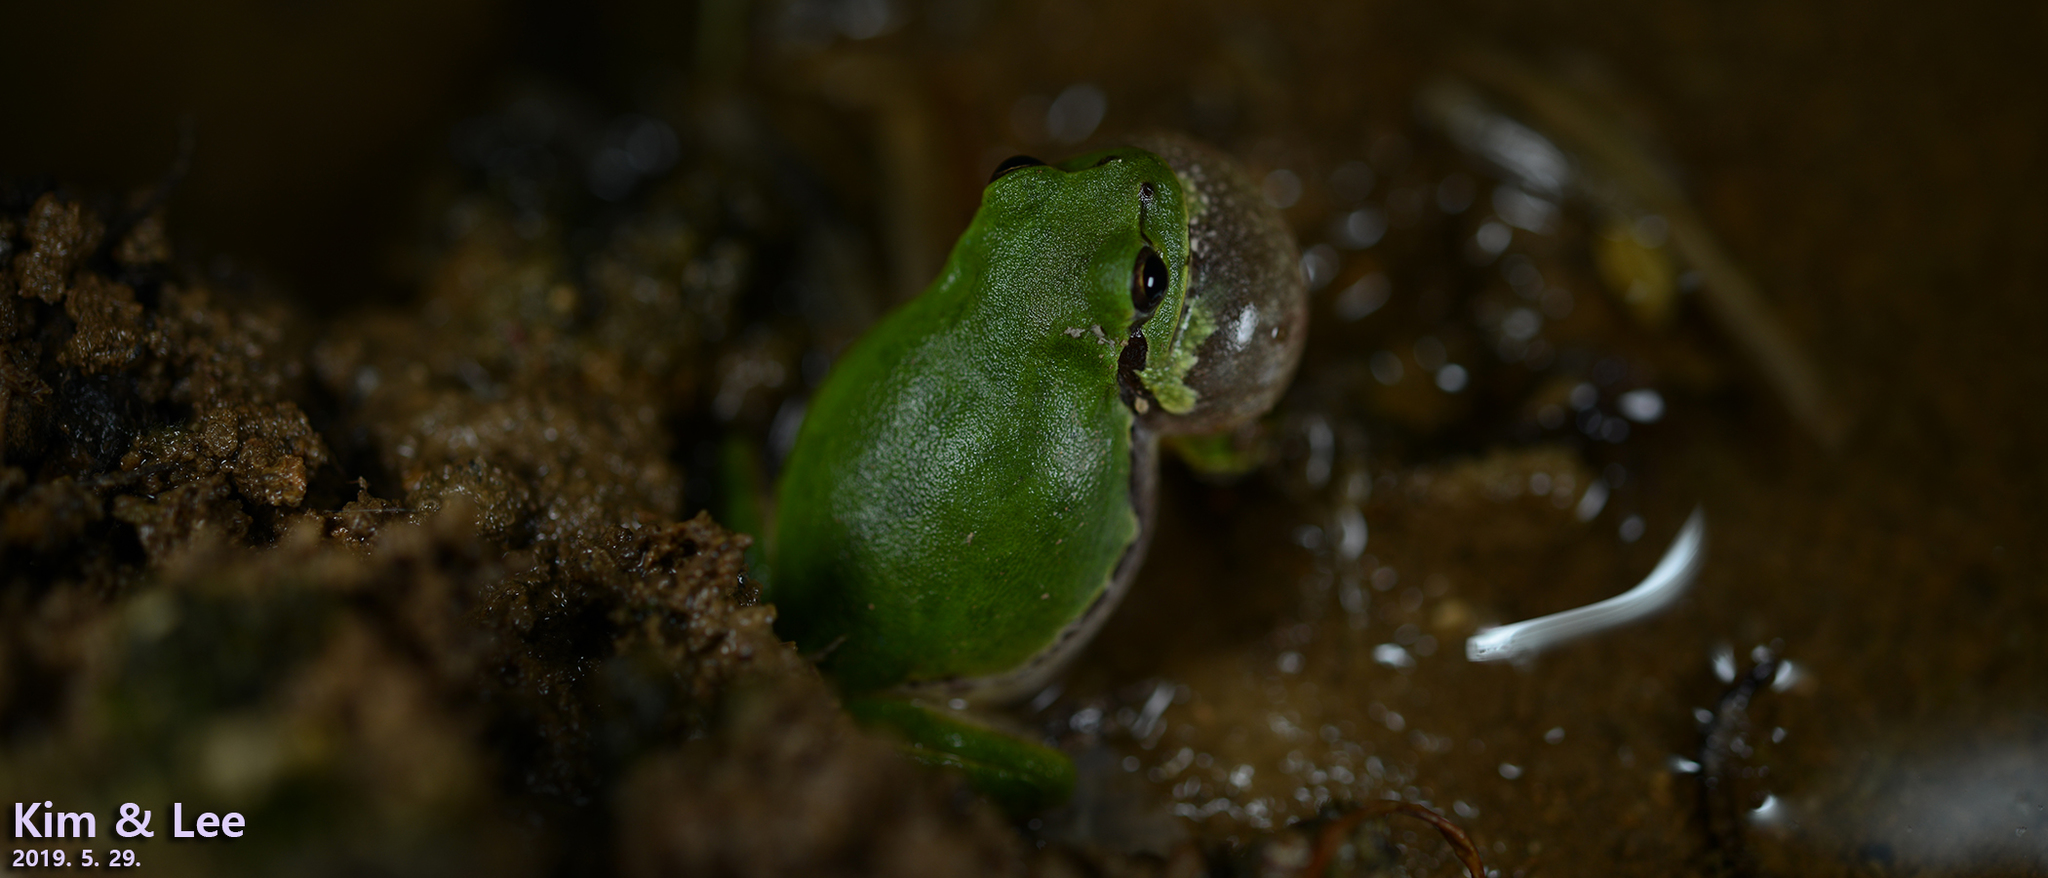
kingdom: Animalia
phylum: Chordata
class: Amphibia
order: Anura
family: Hylidae
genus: Dryophytes
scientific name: Dryophytes japonicus
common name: Japanese treefrog
